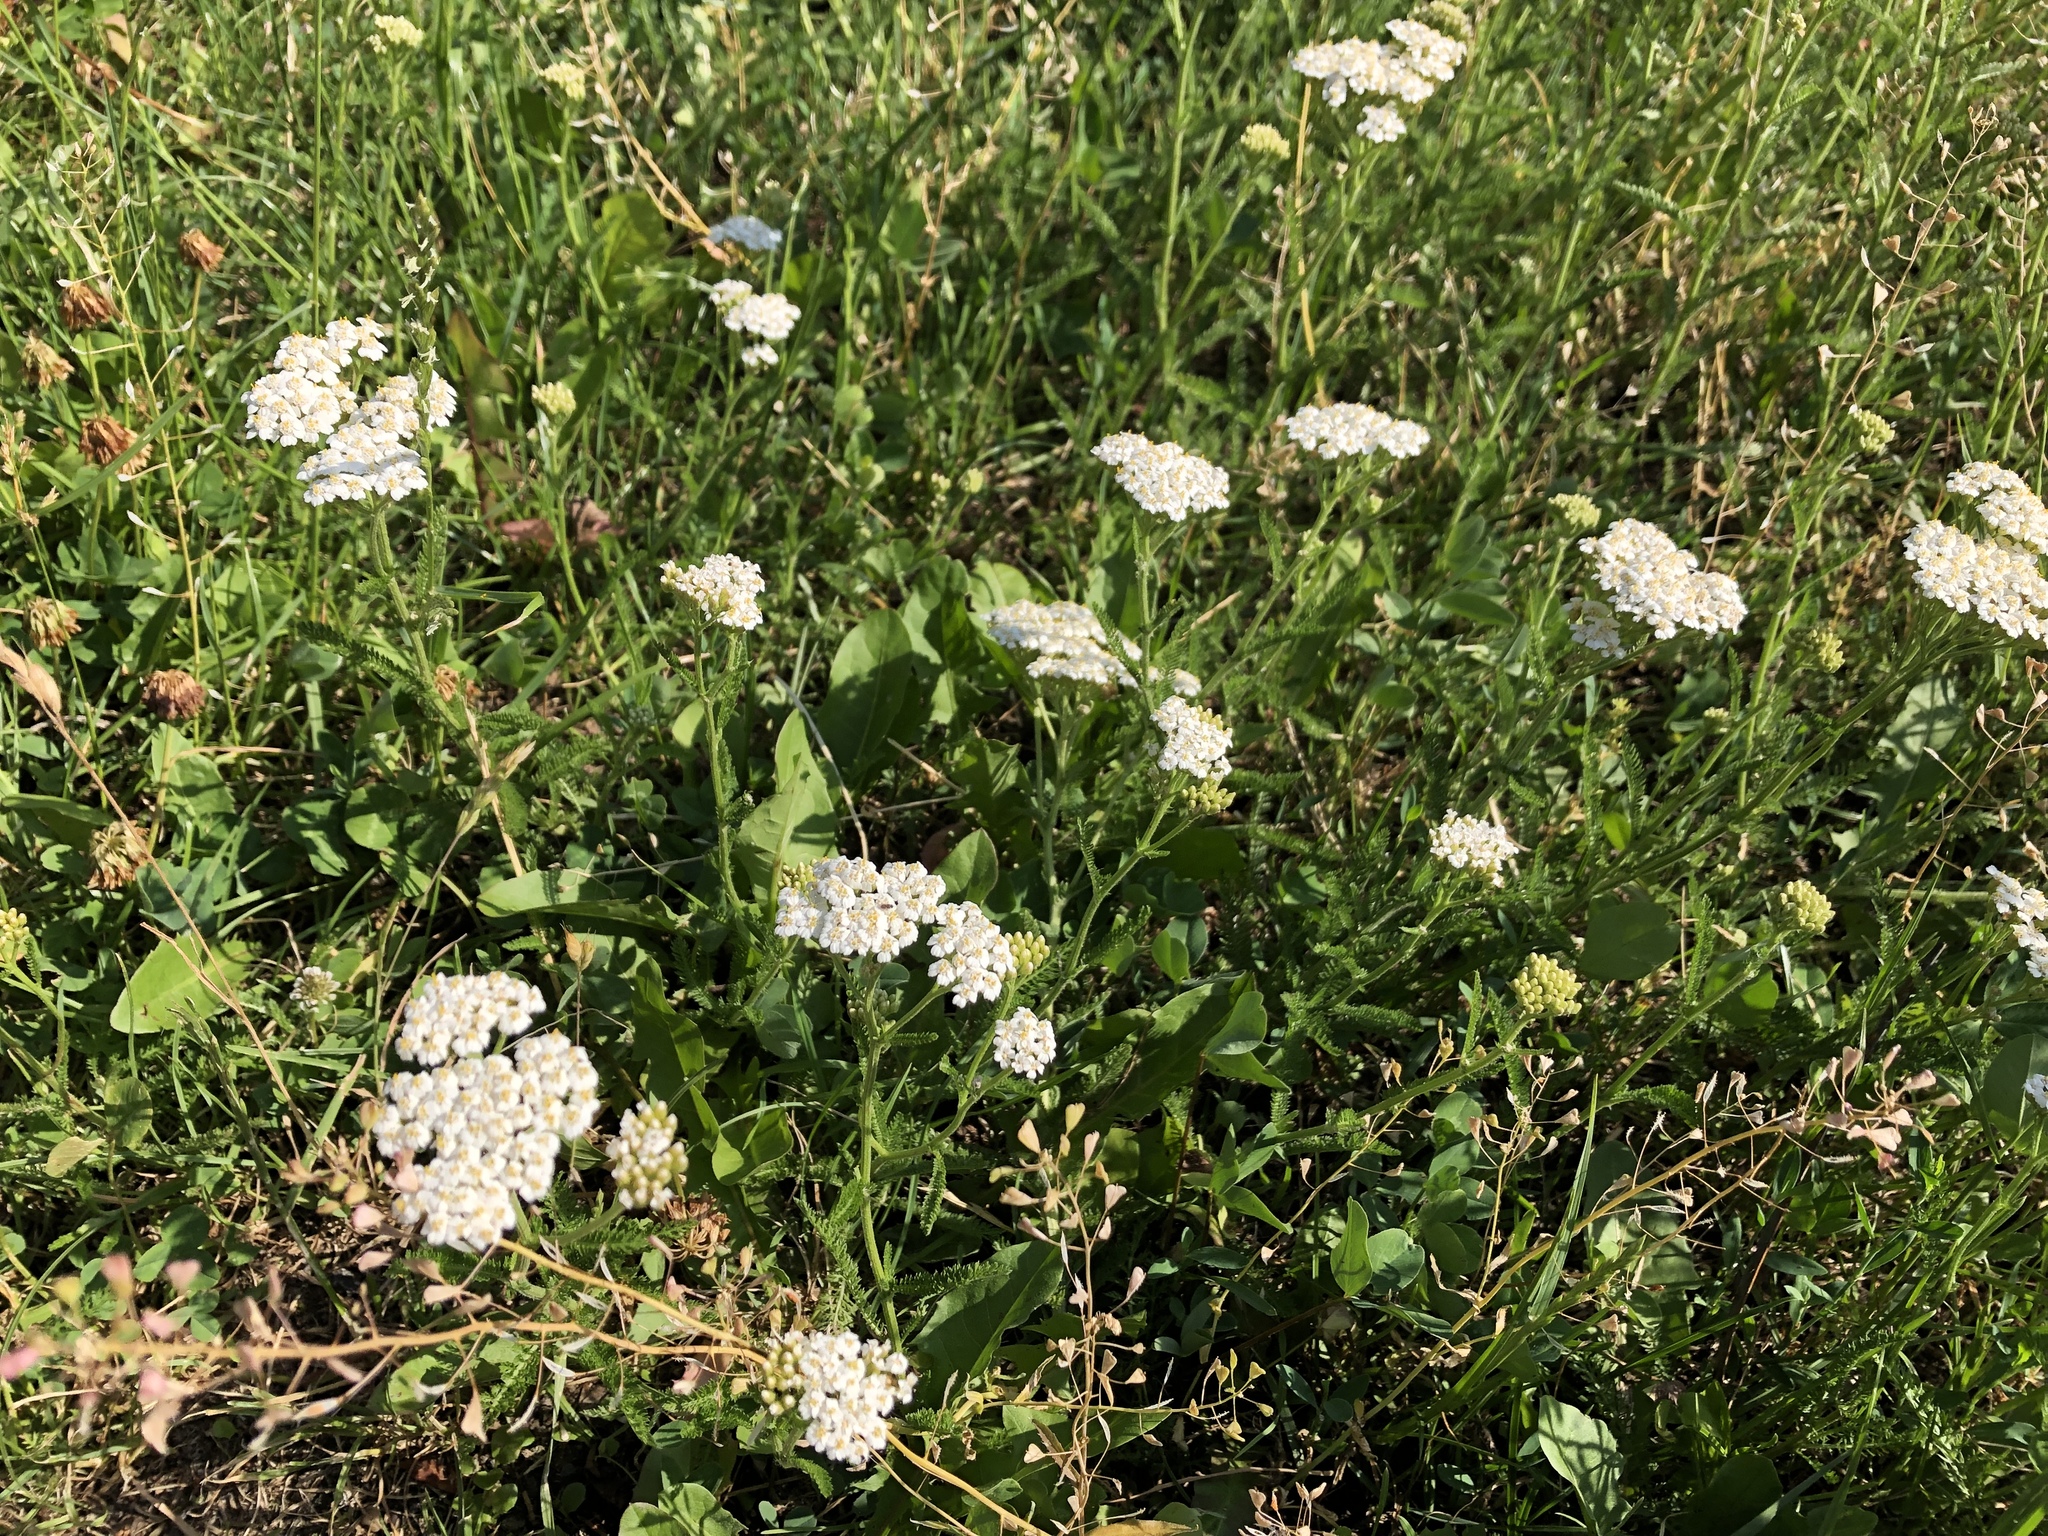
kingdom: Plantae
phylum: Tracheophyta
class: Magnoliopsida
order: Asterales
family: Asteraceae
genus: Achillea
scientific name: Achillea millefolium
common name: Yarrow
